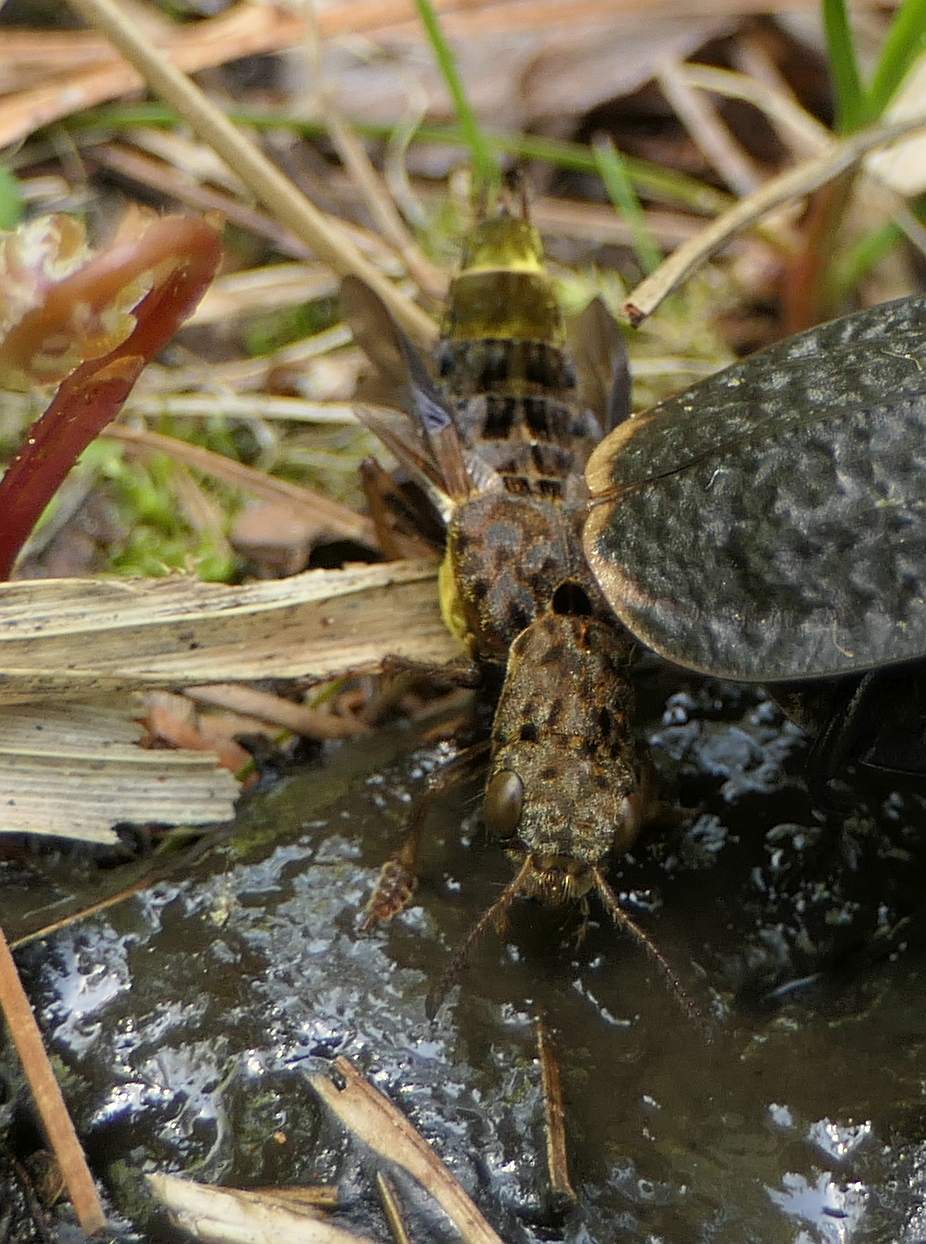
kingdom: Animalia
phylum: Arthropoda
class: Insecta
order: Coleoptera
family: Staphylinidae
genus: Ontholestes
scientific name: Ontholestes cingulatus
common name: Gold-and-brown rove beetle
